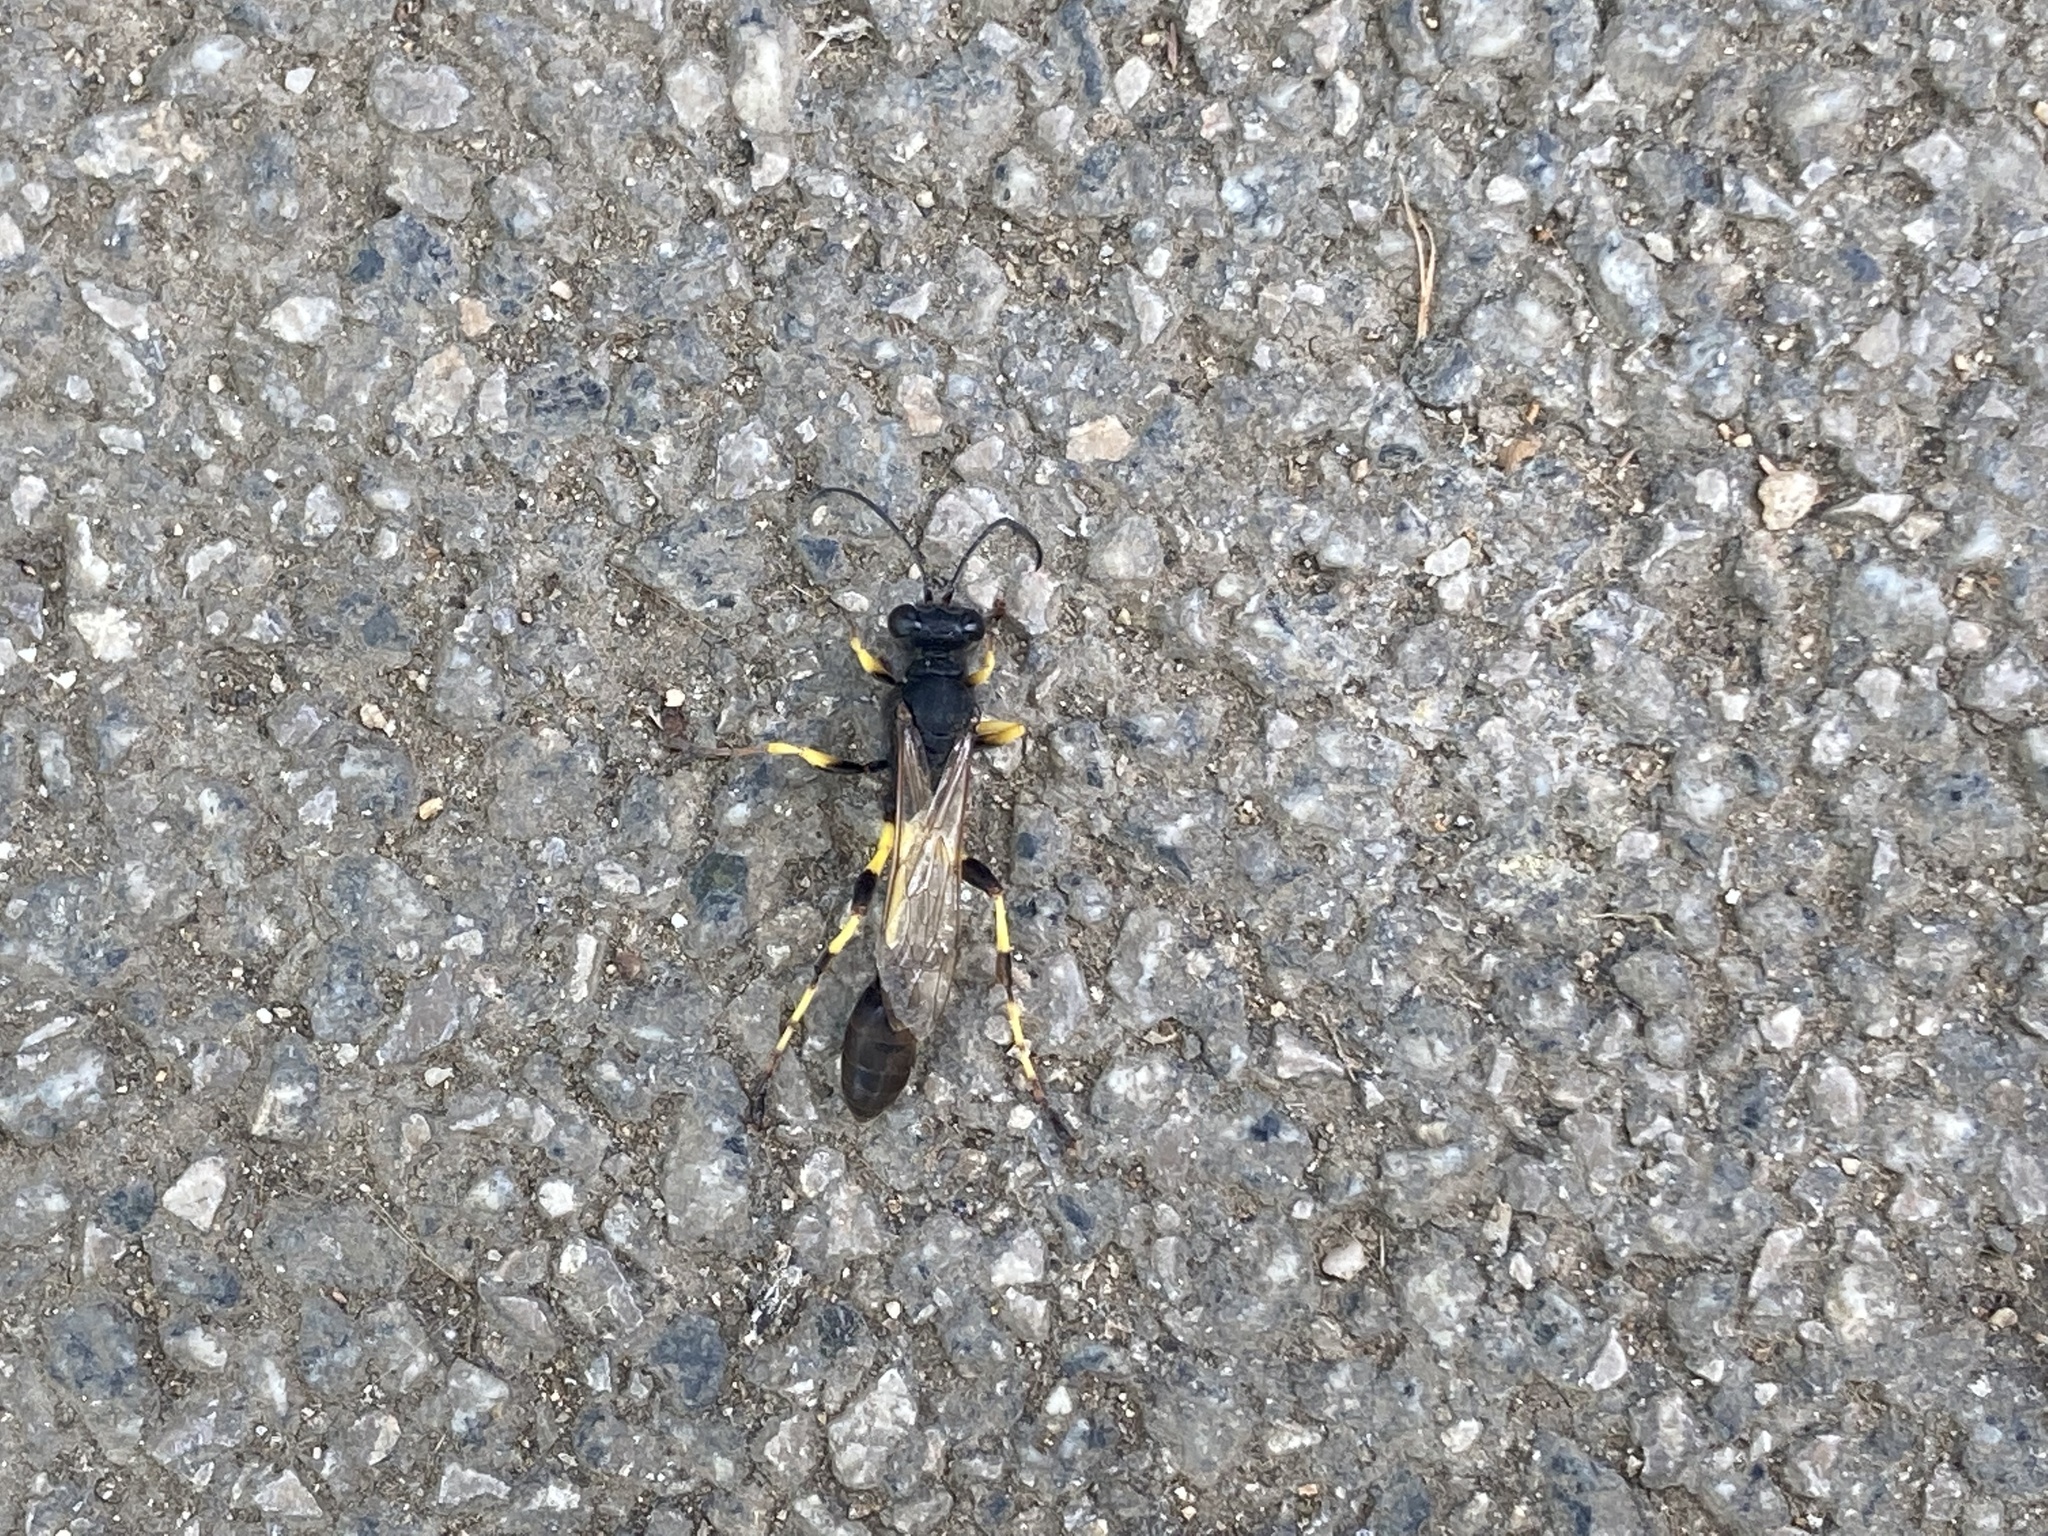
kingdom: Animalia
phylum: Arthropoda
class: Insecta
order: Hymenoptera
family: Sphecidae
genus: Sceliphron
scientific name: Sceliphron spirifex
